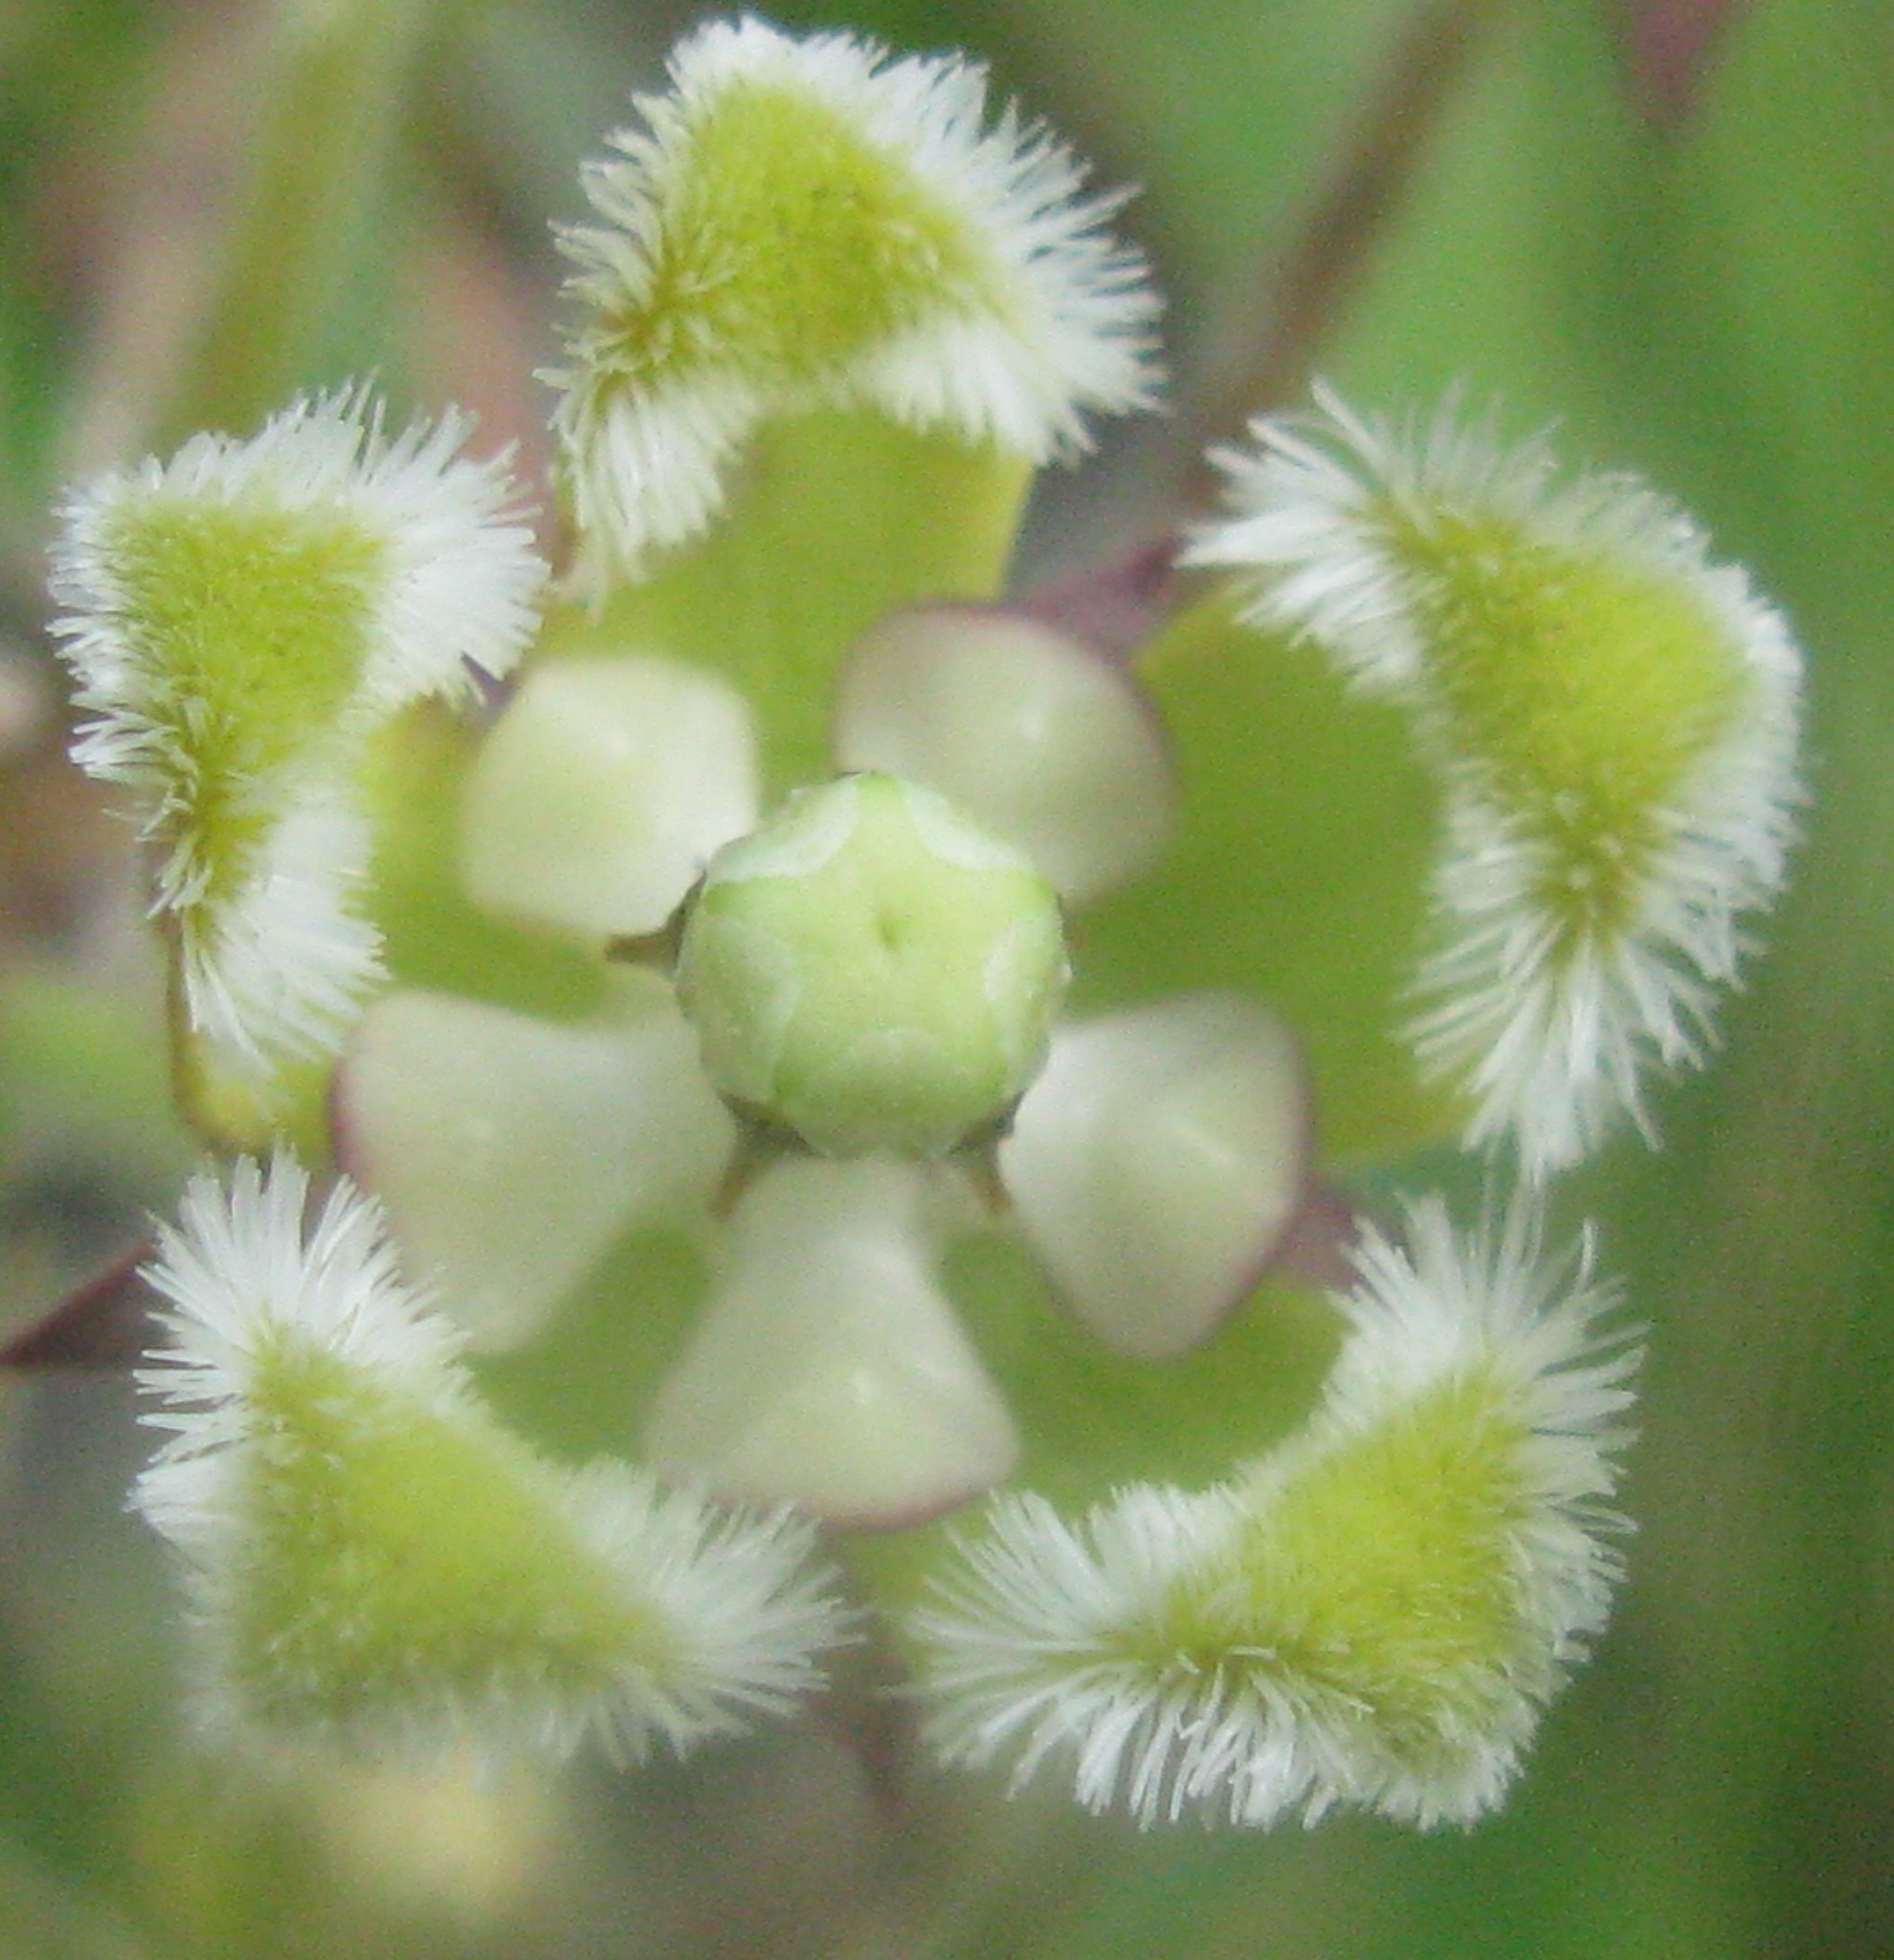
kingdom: Plantae
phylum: Tracheophyta
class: Magnoliopsida
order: Gentianales
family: Apocynaceae
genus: Xysmalobium
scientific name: Xysmalobium undulatum
